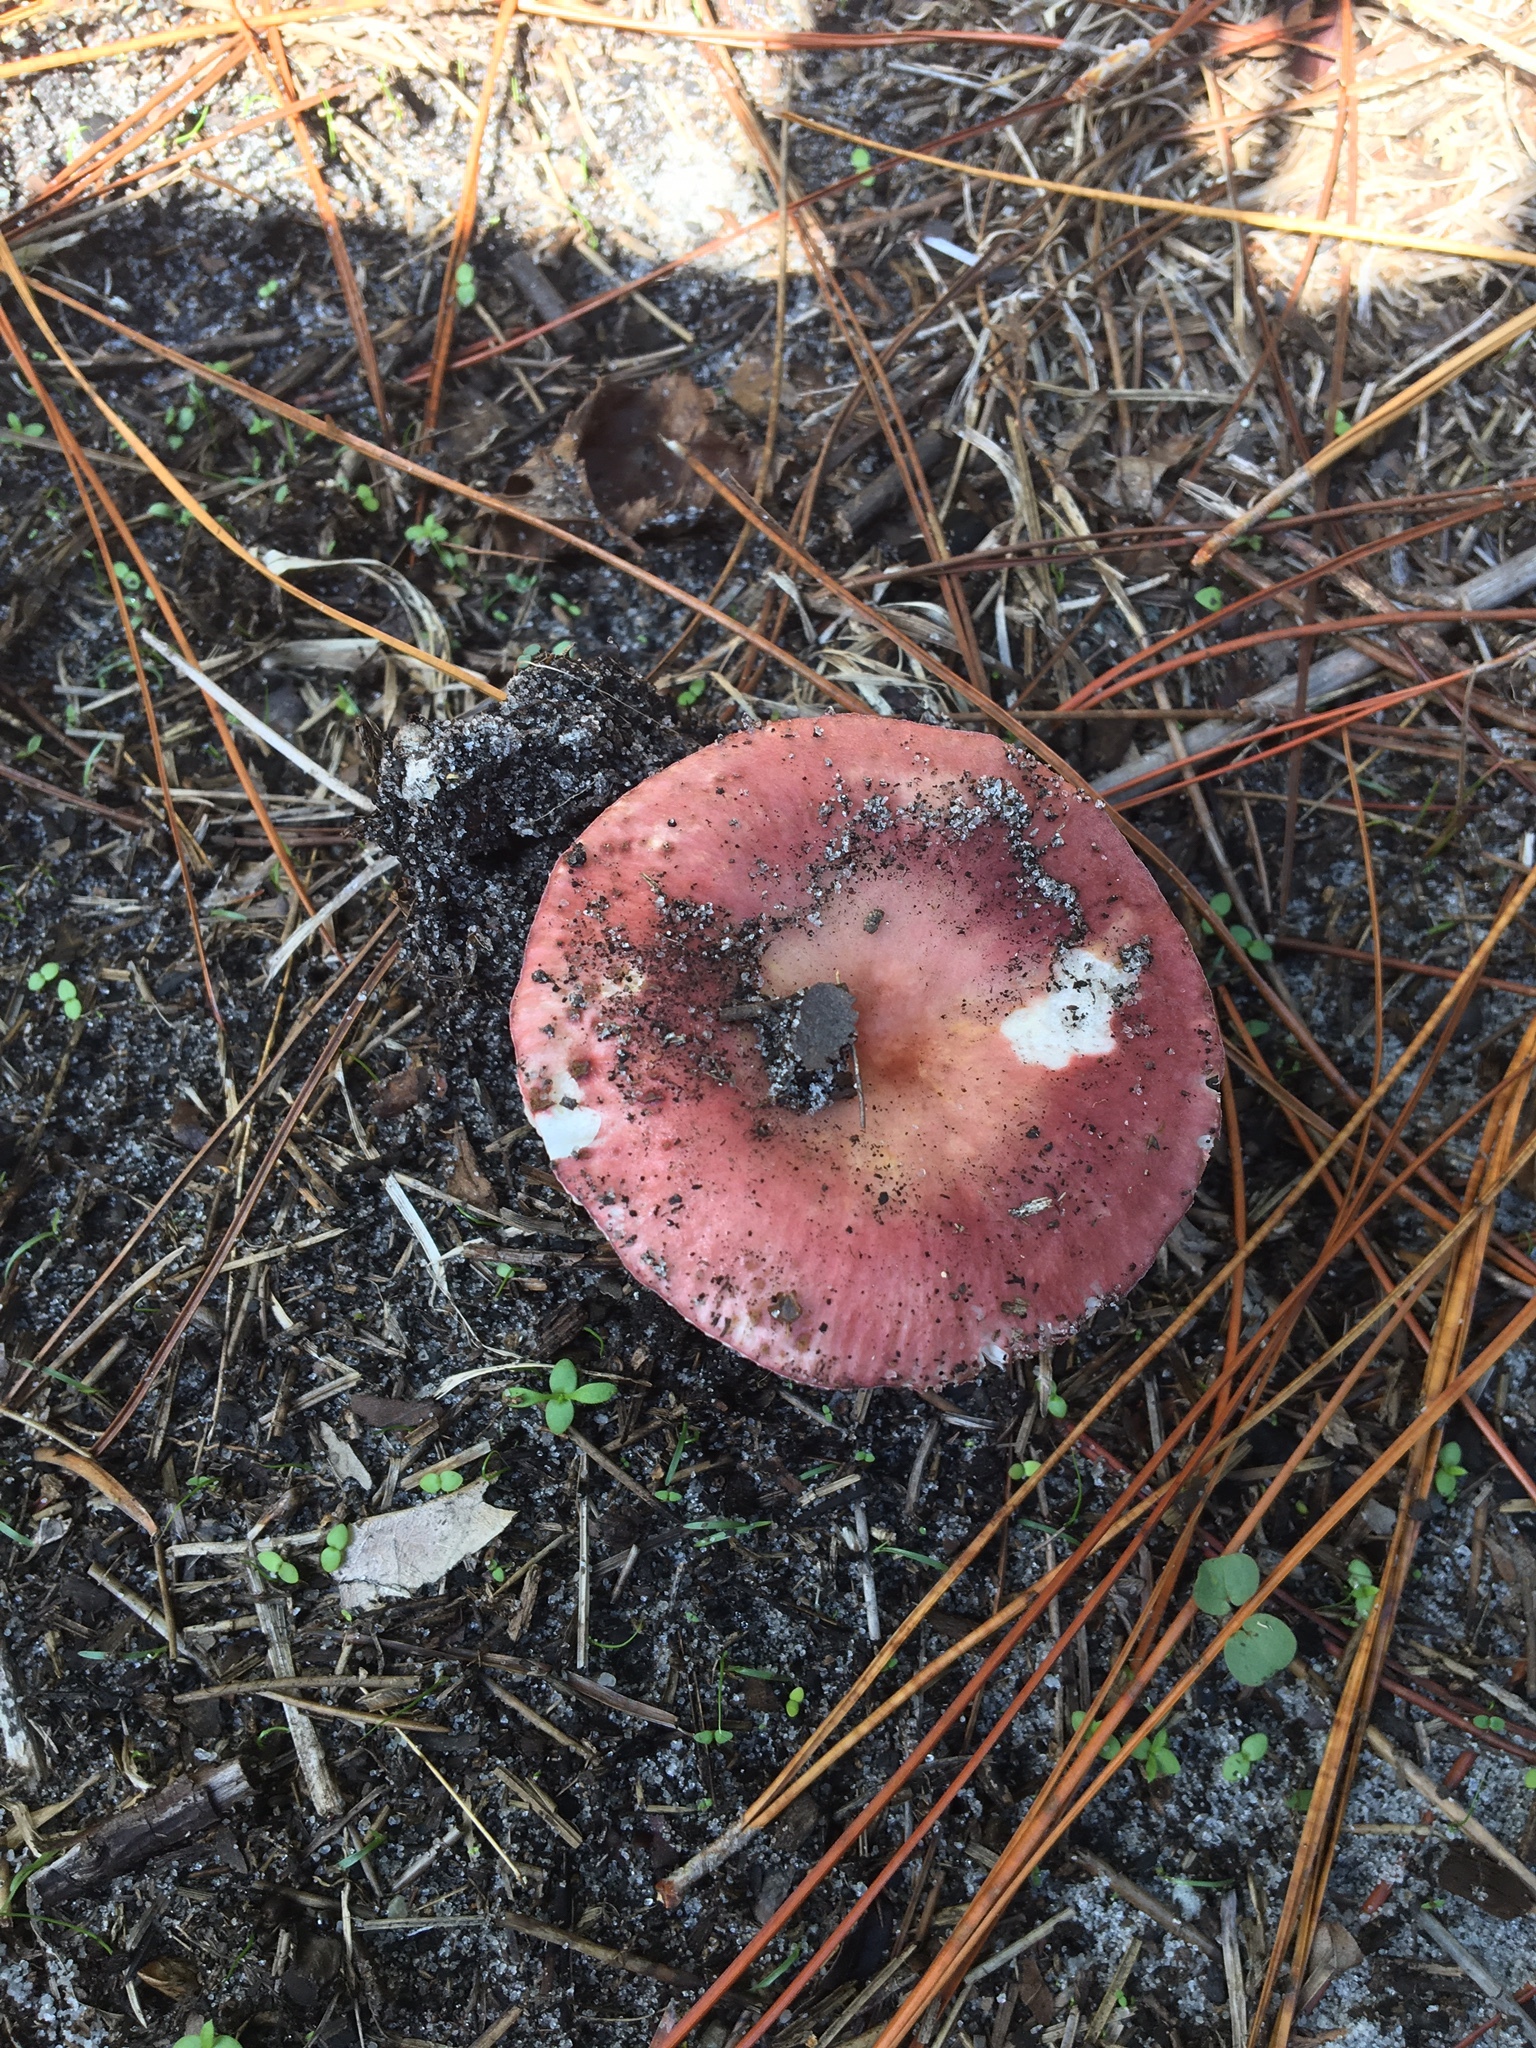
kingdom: Fungi
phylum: Basidiomycota
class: Agaricomycetes
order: Russulales
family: Russulaceae
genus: Russula
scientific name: Russula
